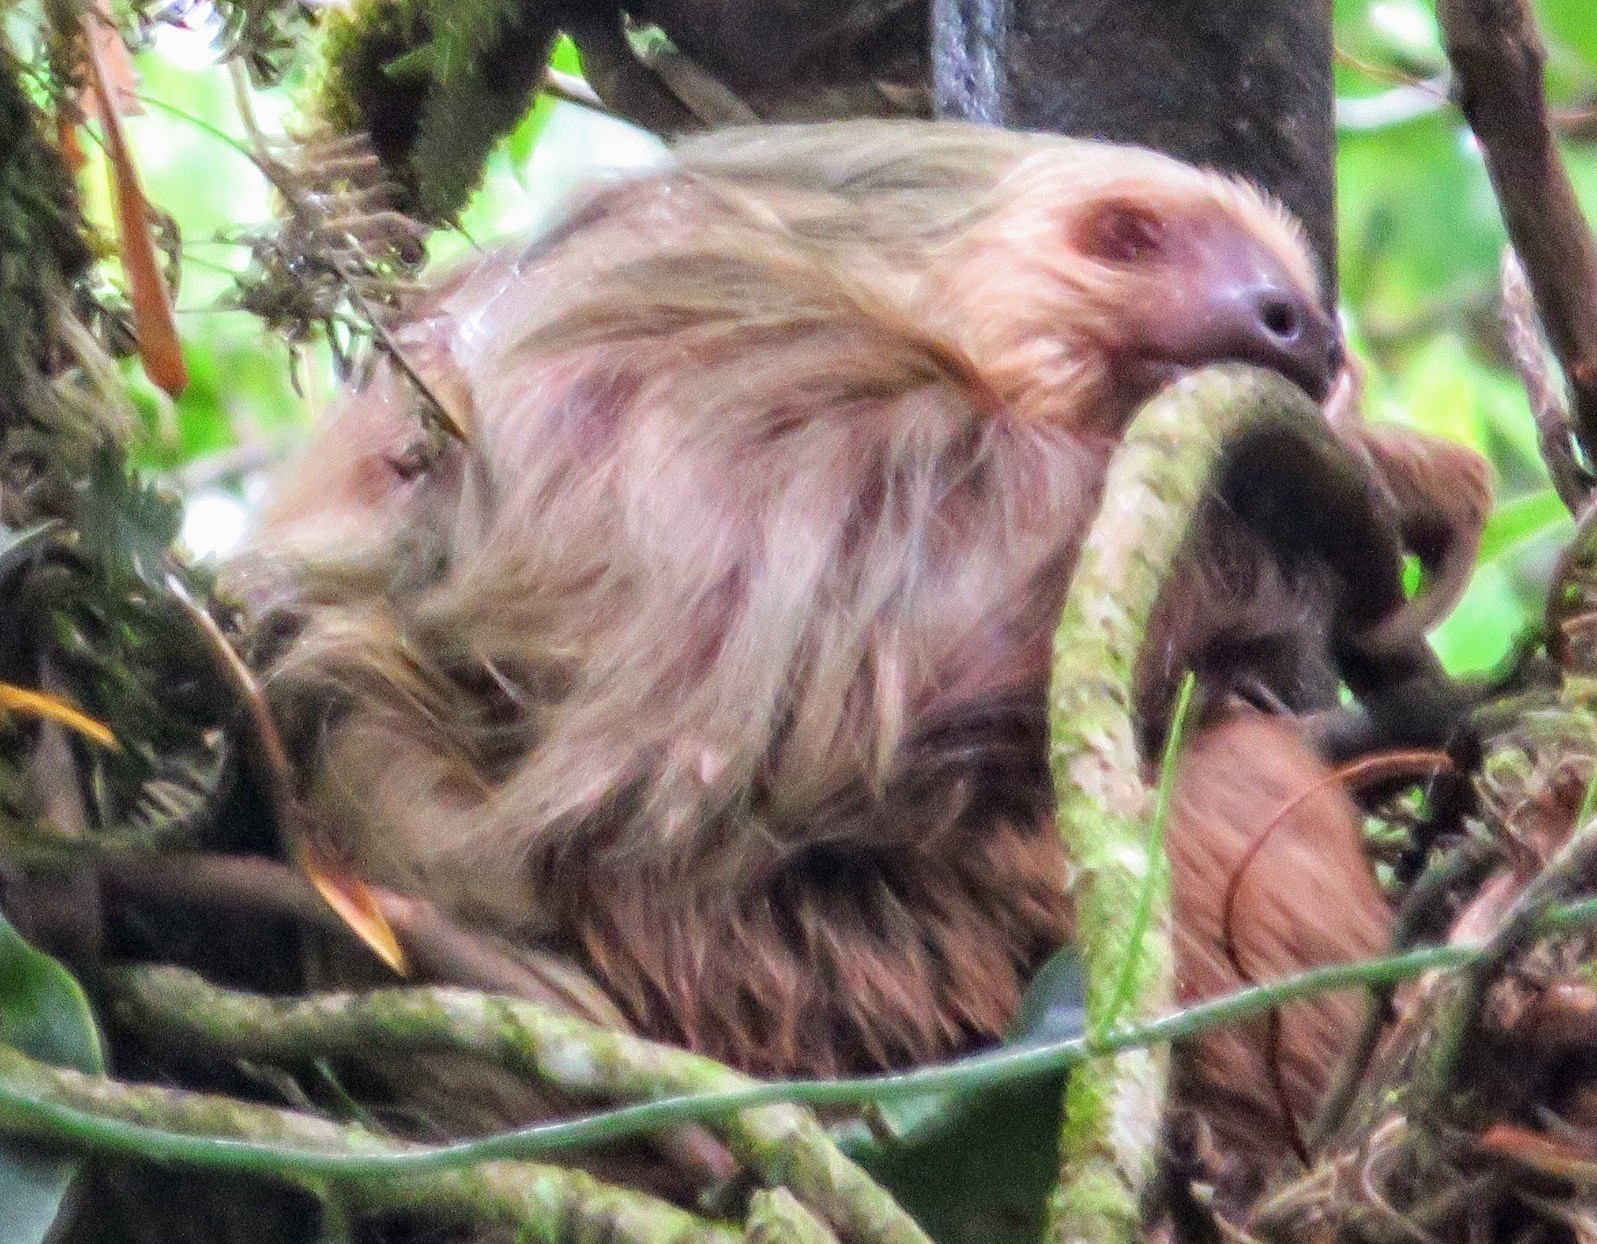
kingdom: Animalia
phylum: Chordata
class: Mammalia
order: Pilosa
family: Megalonychidae
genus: Choloepus
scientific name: Choloepus hoffmanni
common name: Hoffmann's two-toed sloth
